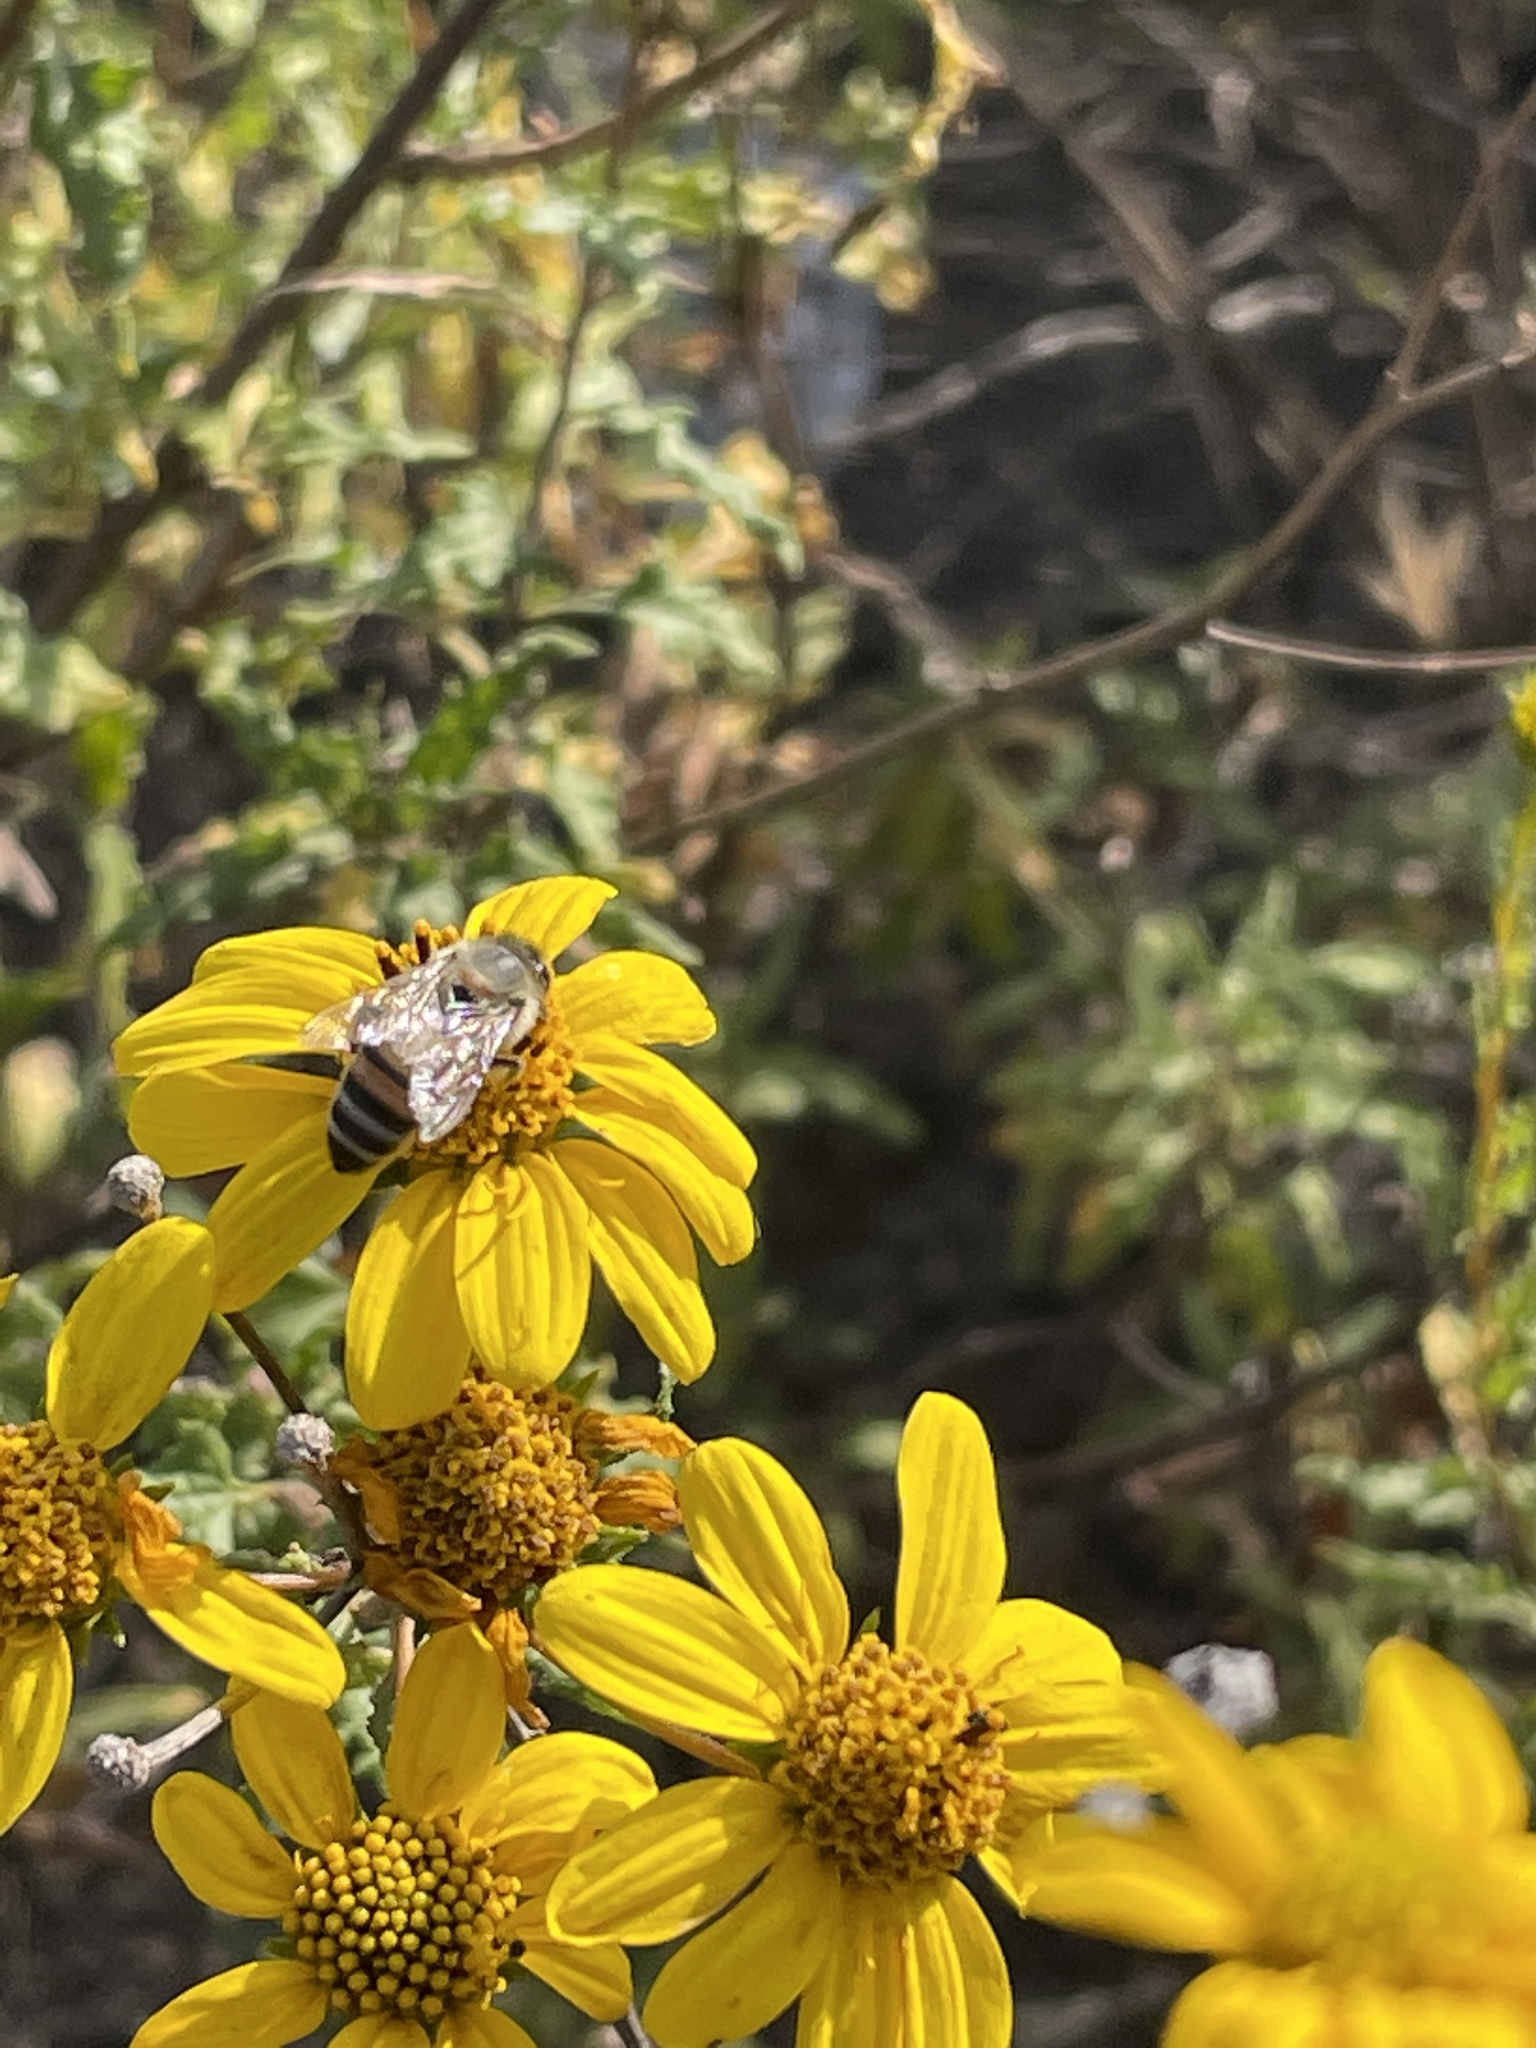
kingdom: Animalia
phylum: Arthropoda
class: Insecta
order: Hymenoptera
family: Apidae
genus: Apis
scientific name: Apis mellifera
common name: Honey bee
